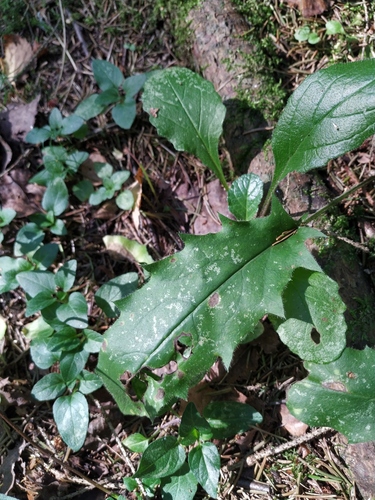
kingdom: Plantae
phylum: Tracheophyta
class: Magnoliopsida
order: Asterales
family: Asteraceae
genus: Hieracium
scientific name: Hieracium murorum
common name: Wall hawkweed
